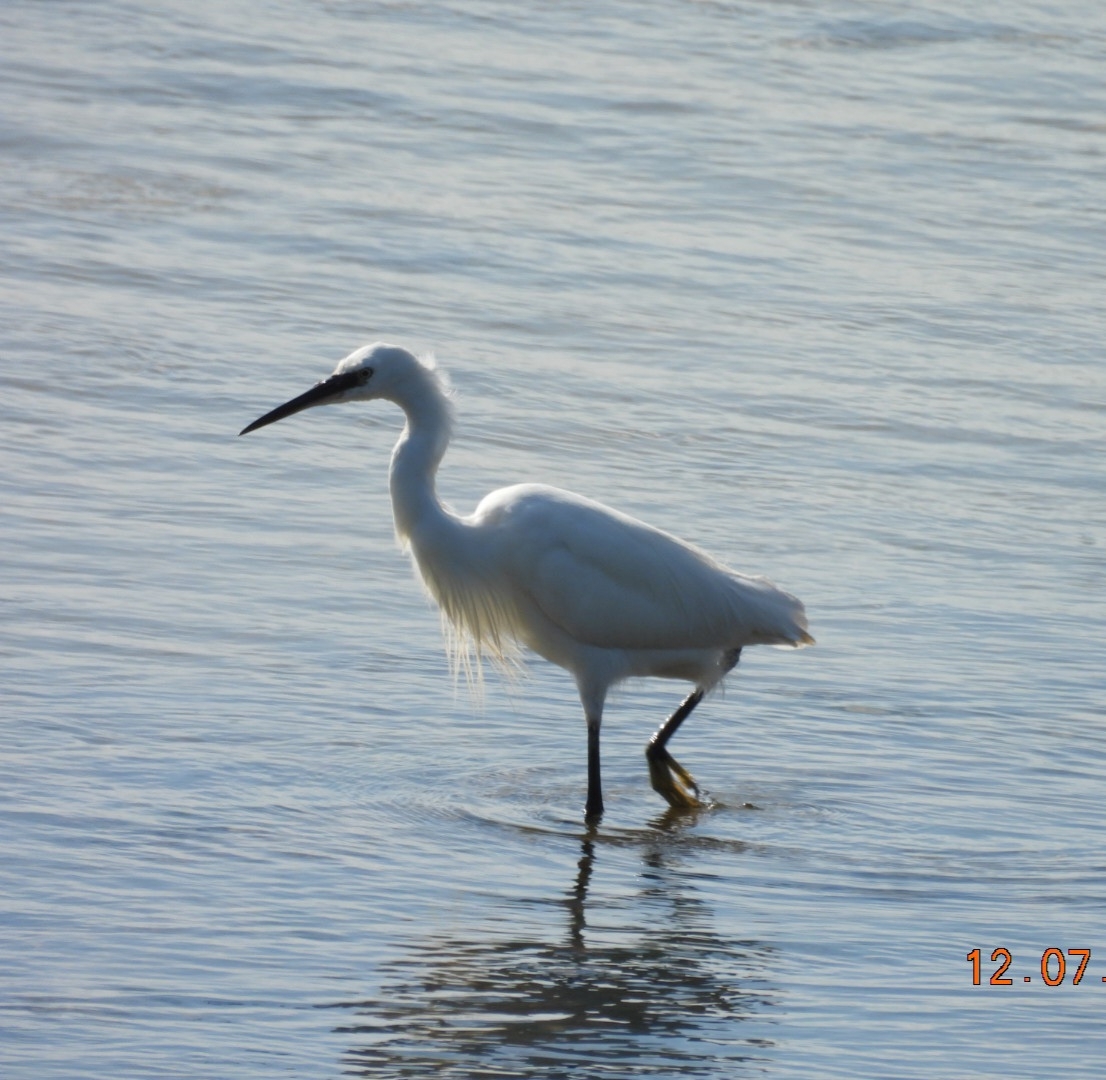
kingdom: Animalia
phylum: Chordata
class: Aves
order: Pelecaniformes
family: Ardeidae
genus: Egretta
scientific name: Egretta garzetta
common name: Little egret
